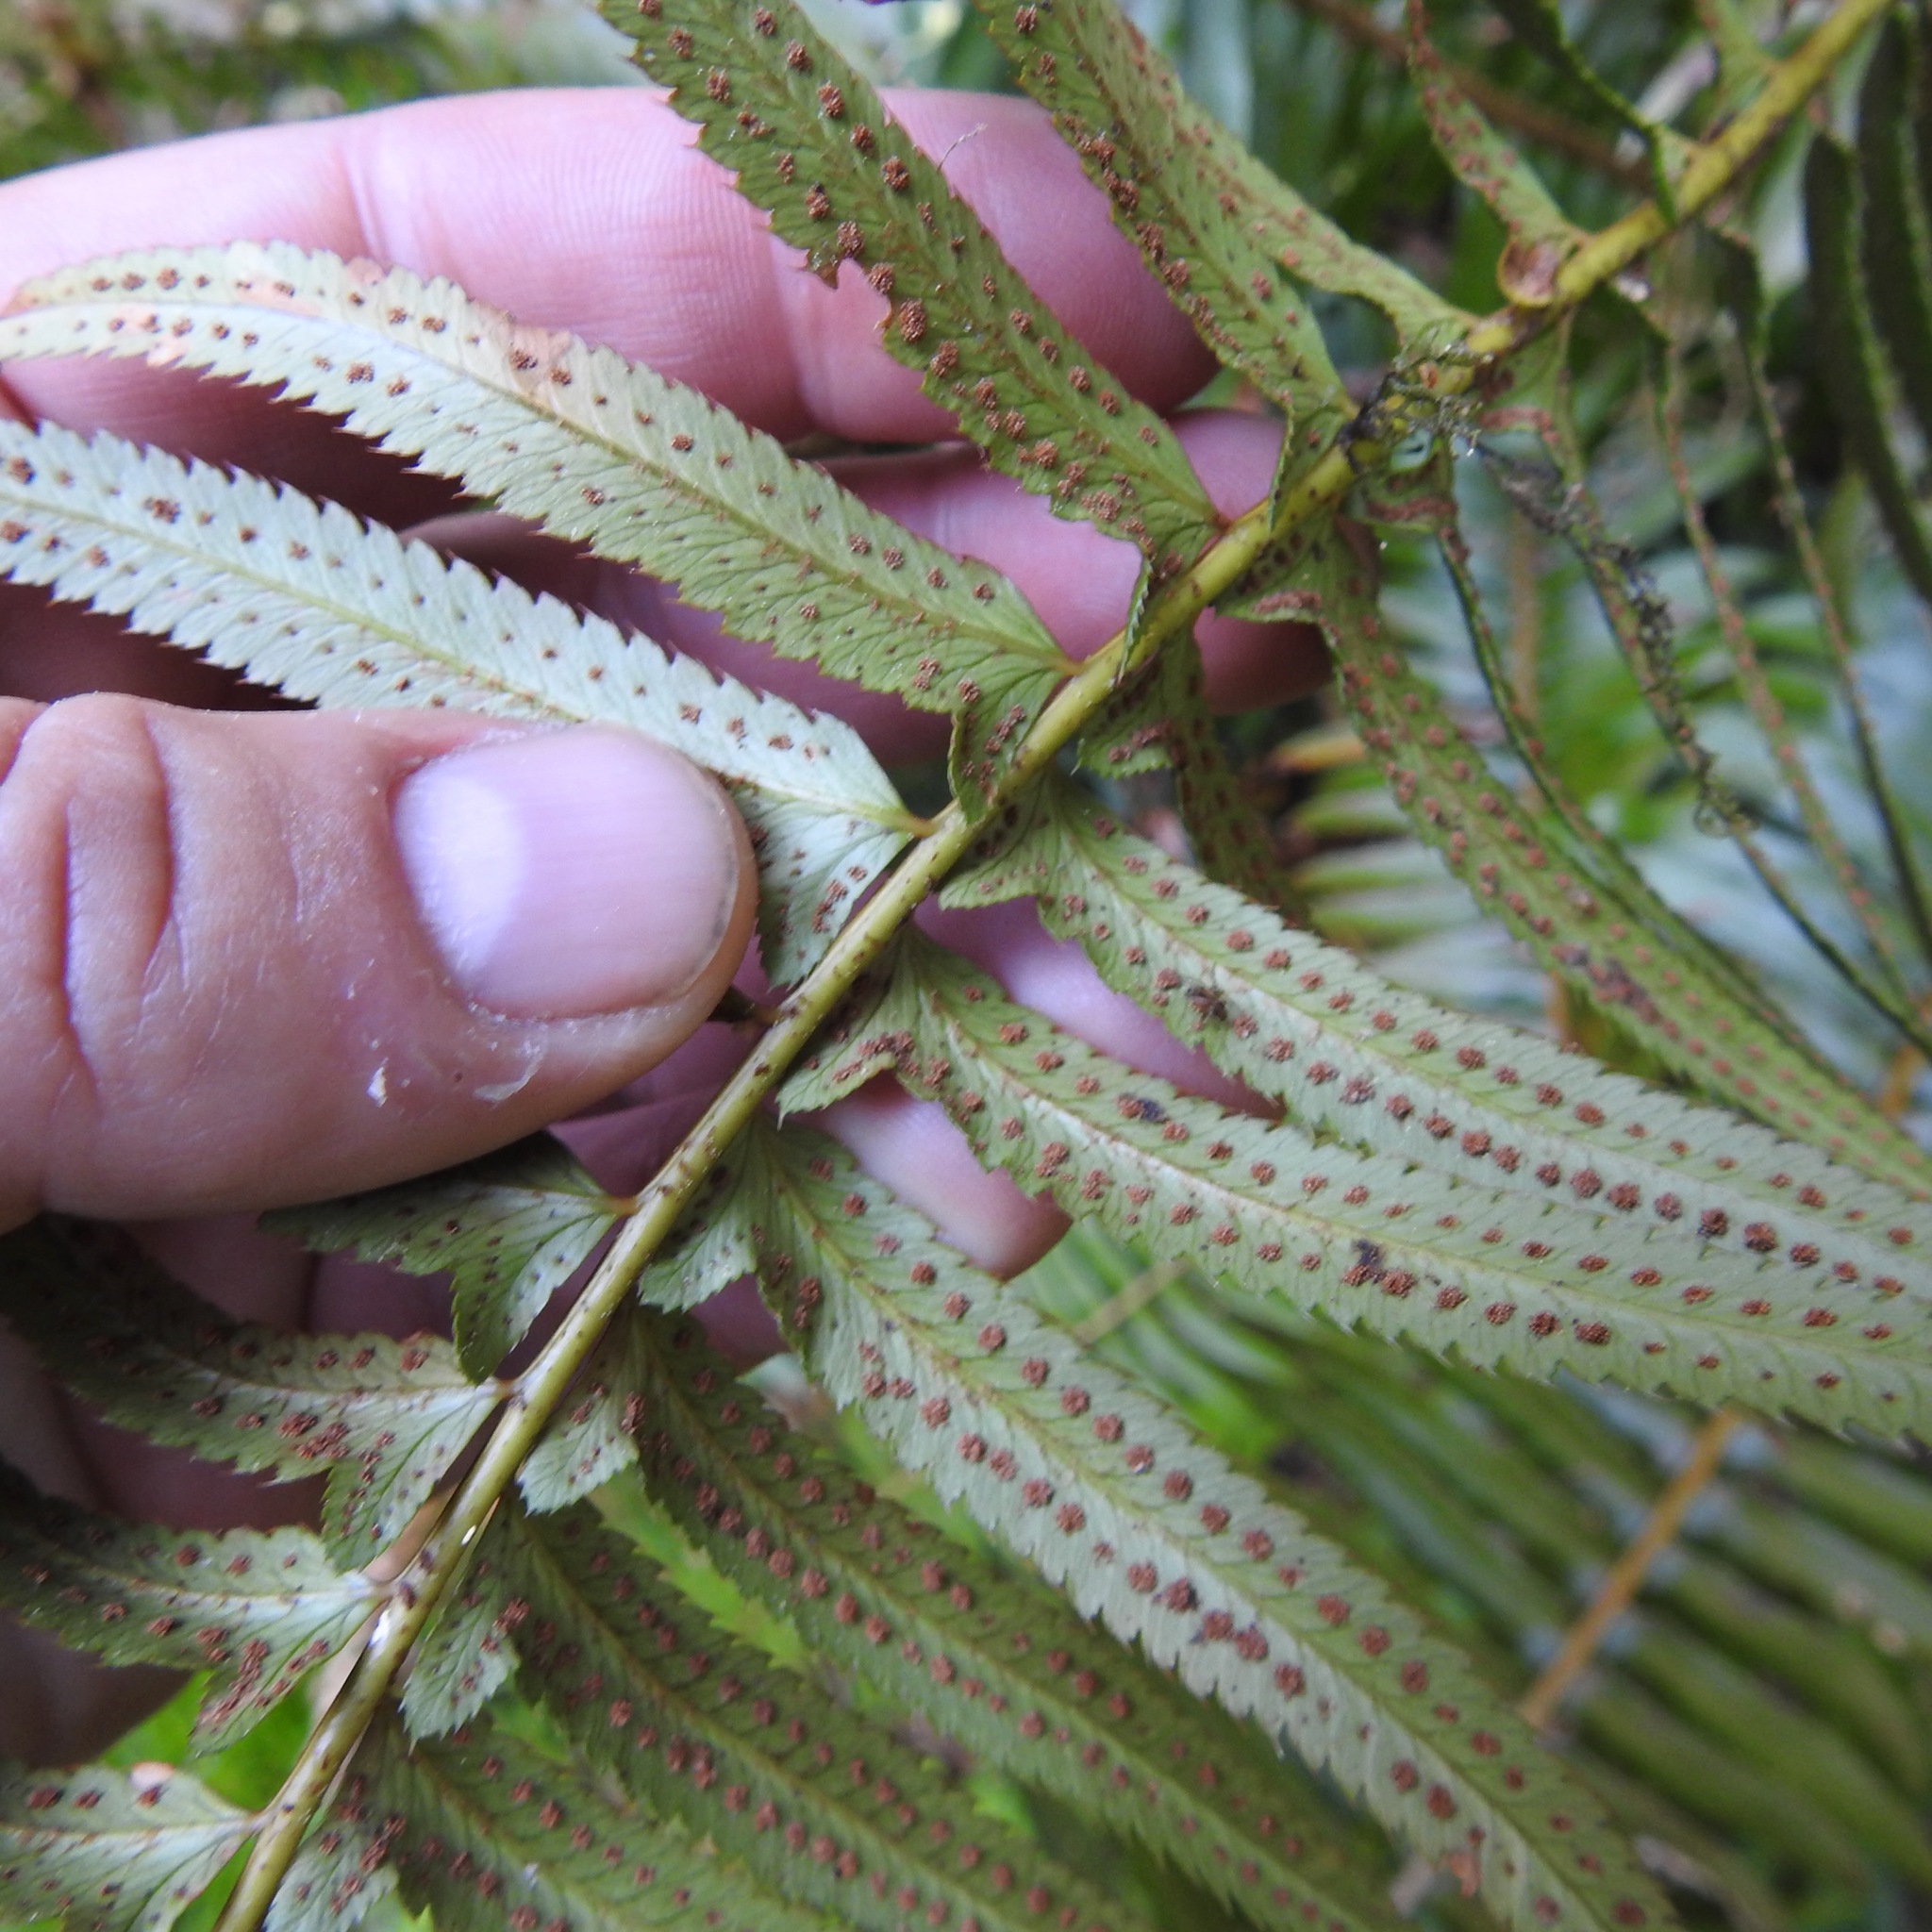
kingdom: Plantae
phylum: Tracheophyta
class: Polypodiopsida
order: Polypodiales
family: Dryopteridaceae
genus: Polystichum
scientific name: Polystichum munitum
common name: Western sword-fern
